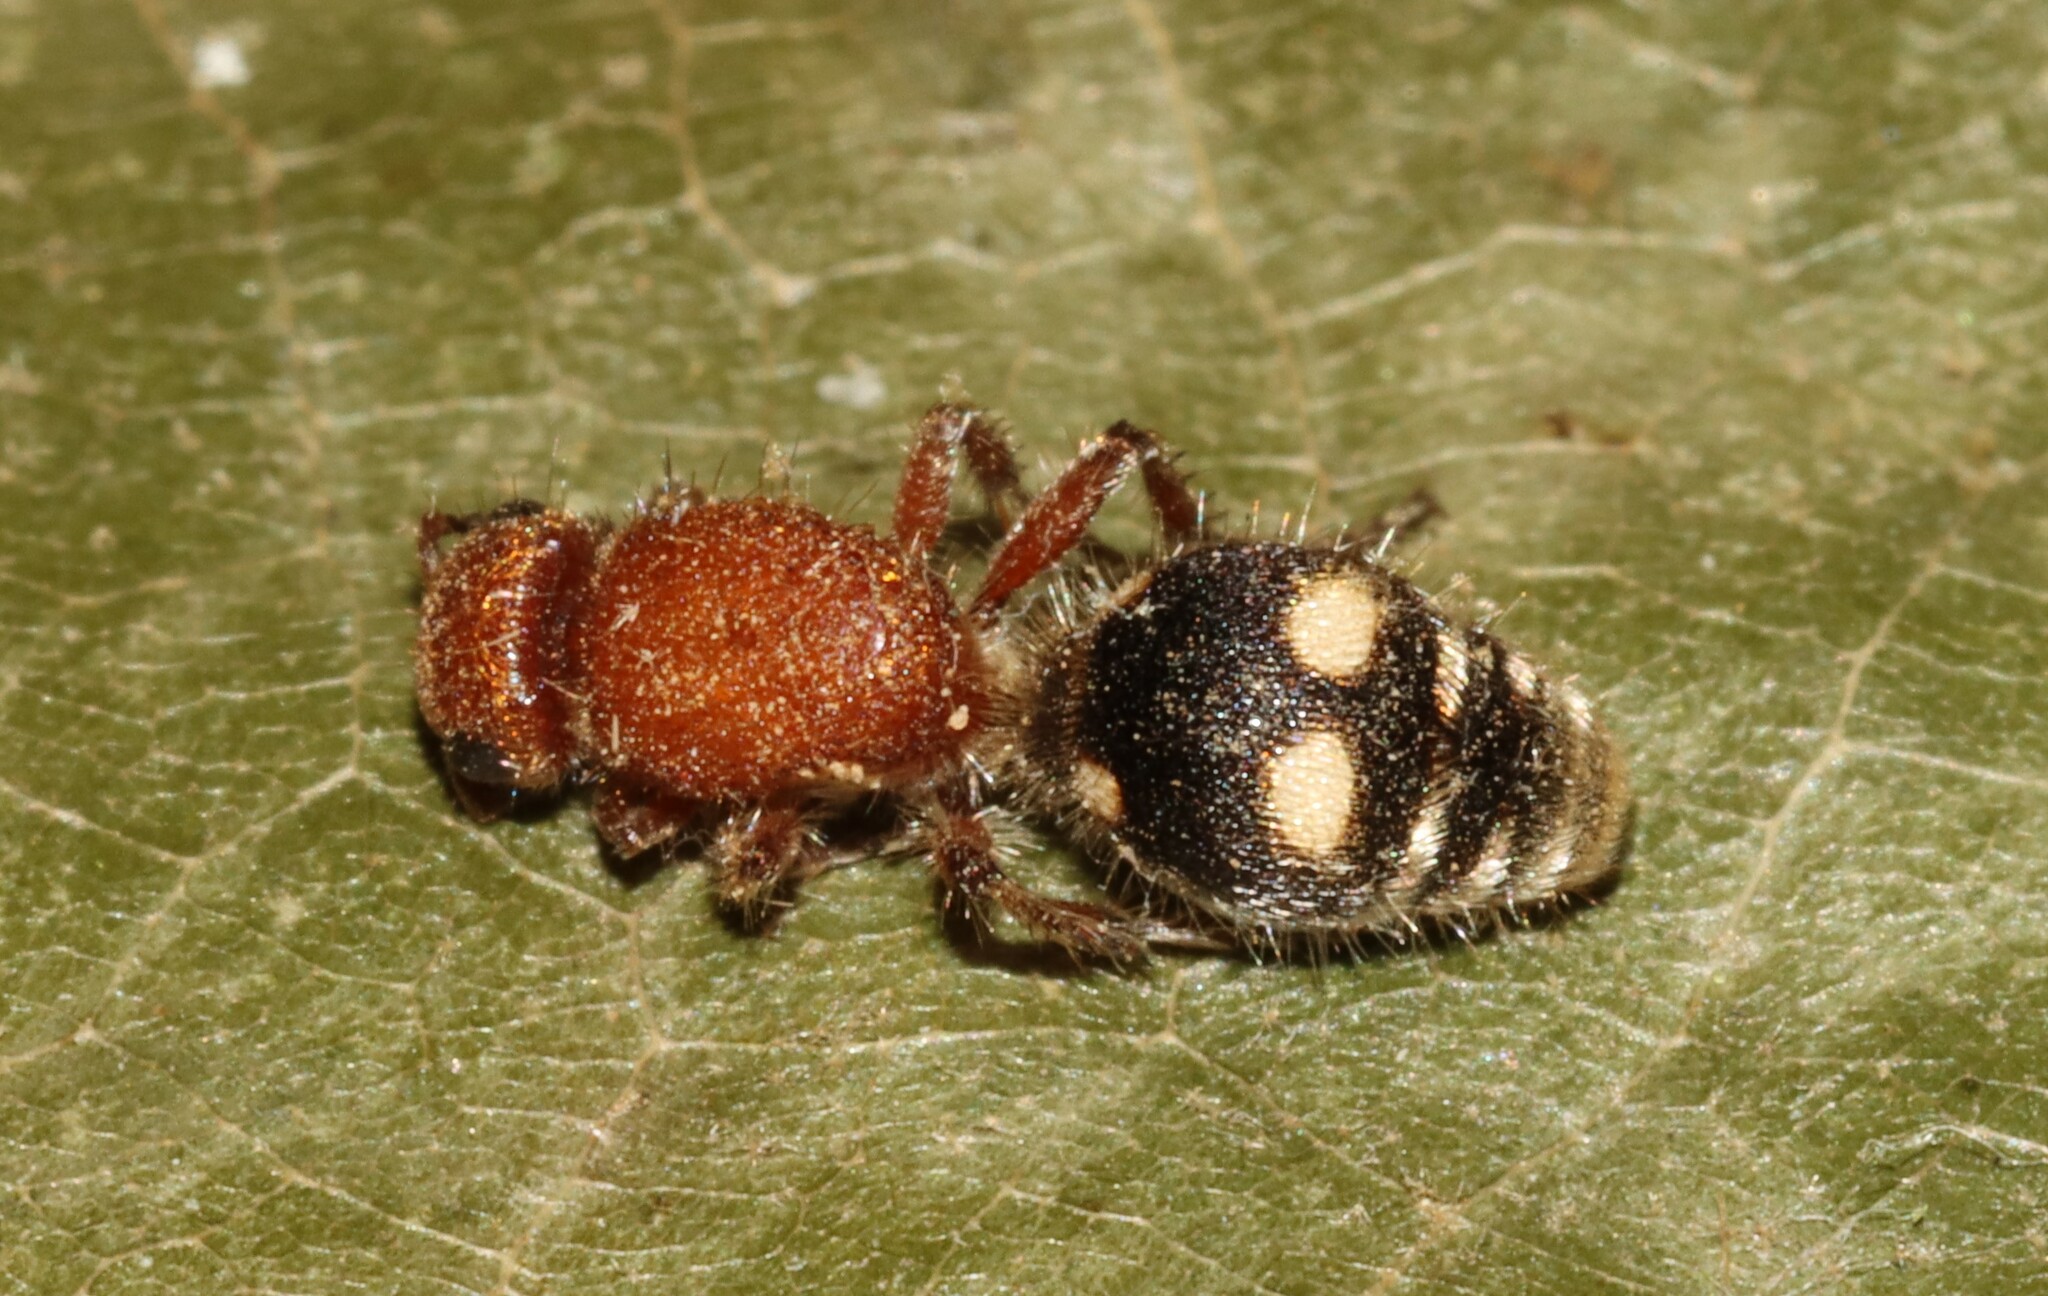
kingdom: Animalia
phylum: Arthropoda
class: Insecta
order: Hymenoptera
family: Mutillidae
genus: Dasymutilla
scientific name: Dasymutilla
